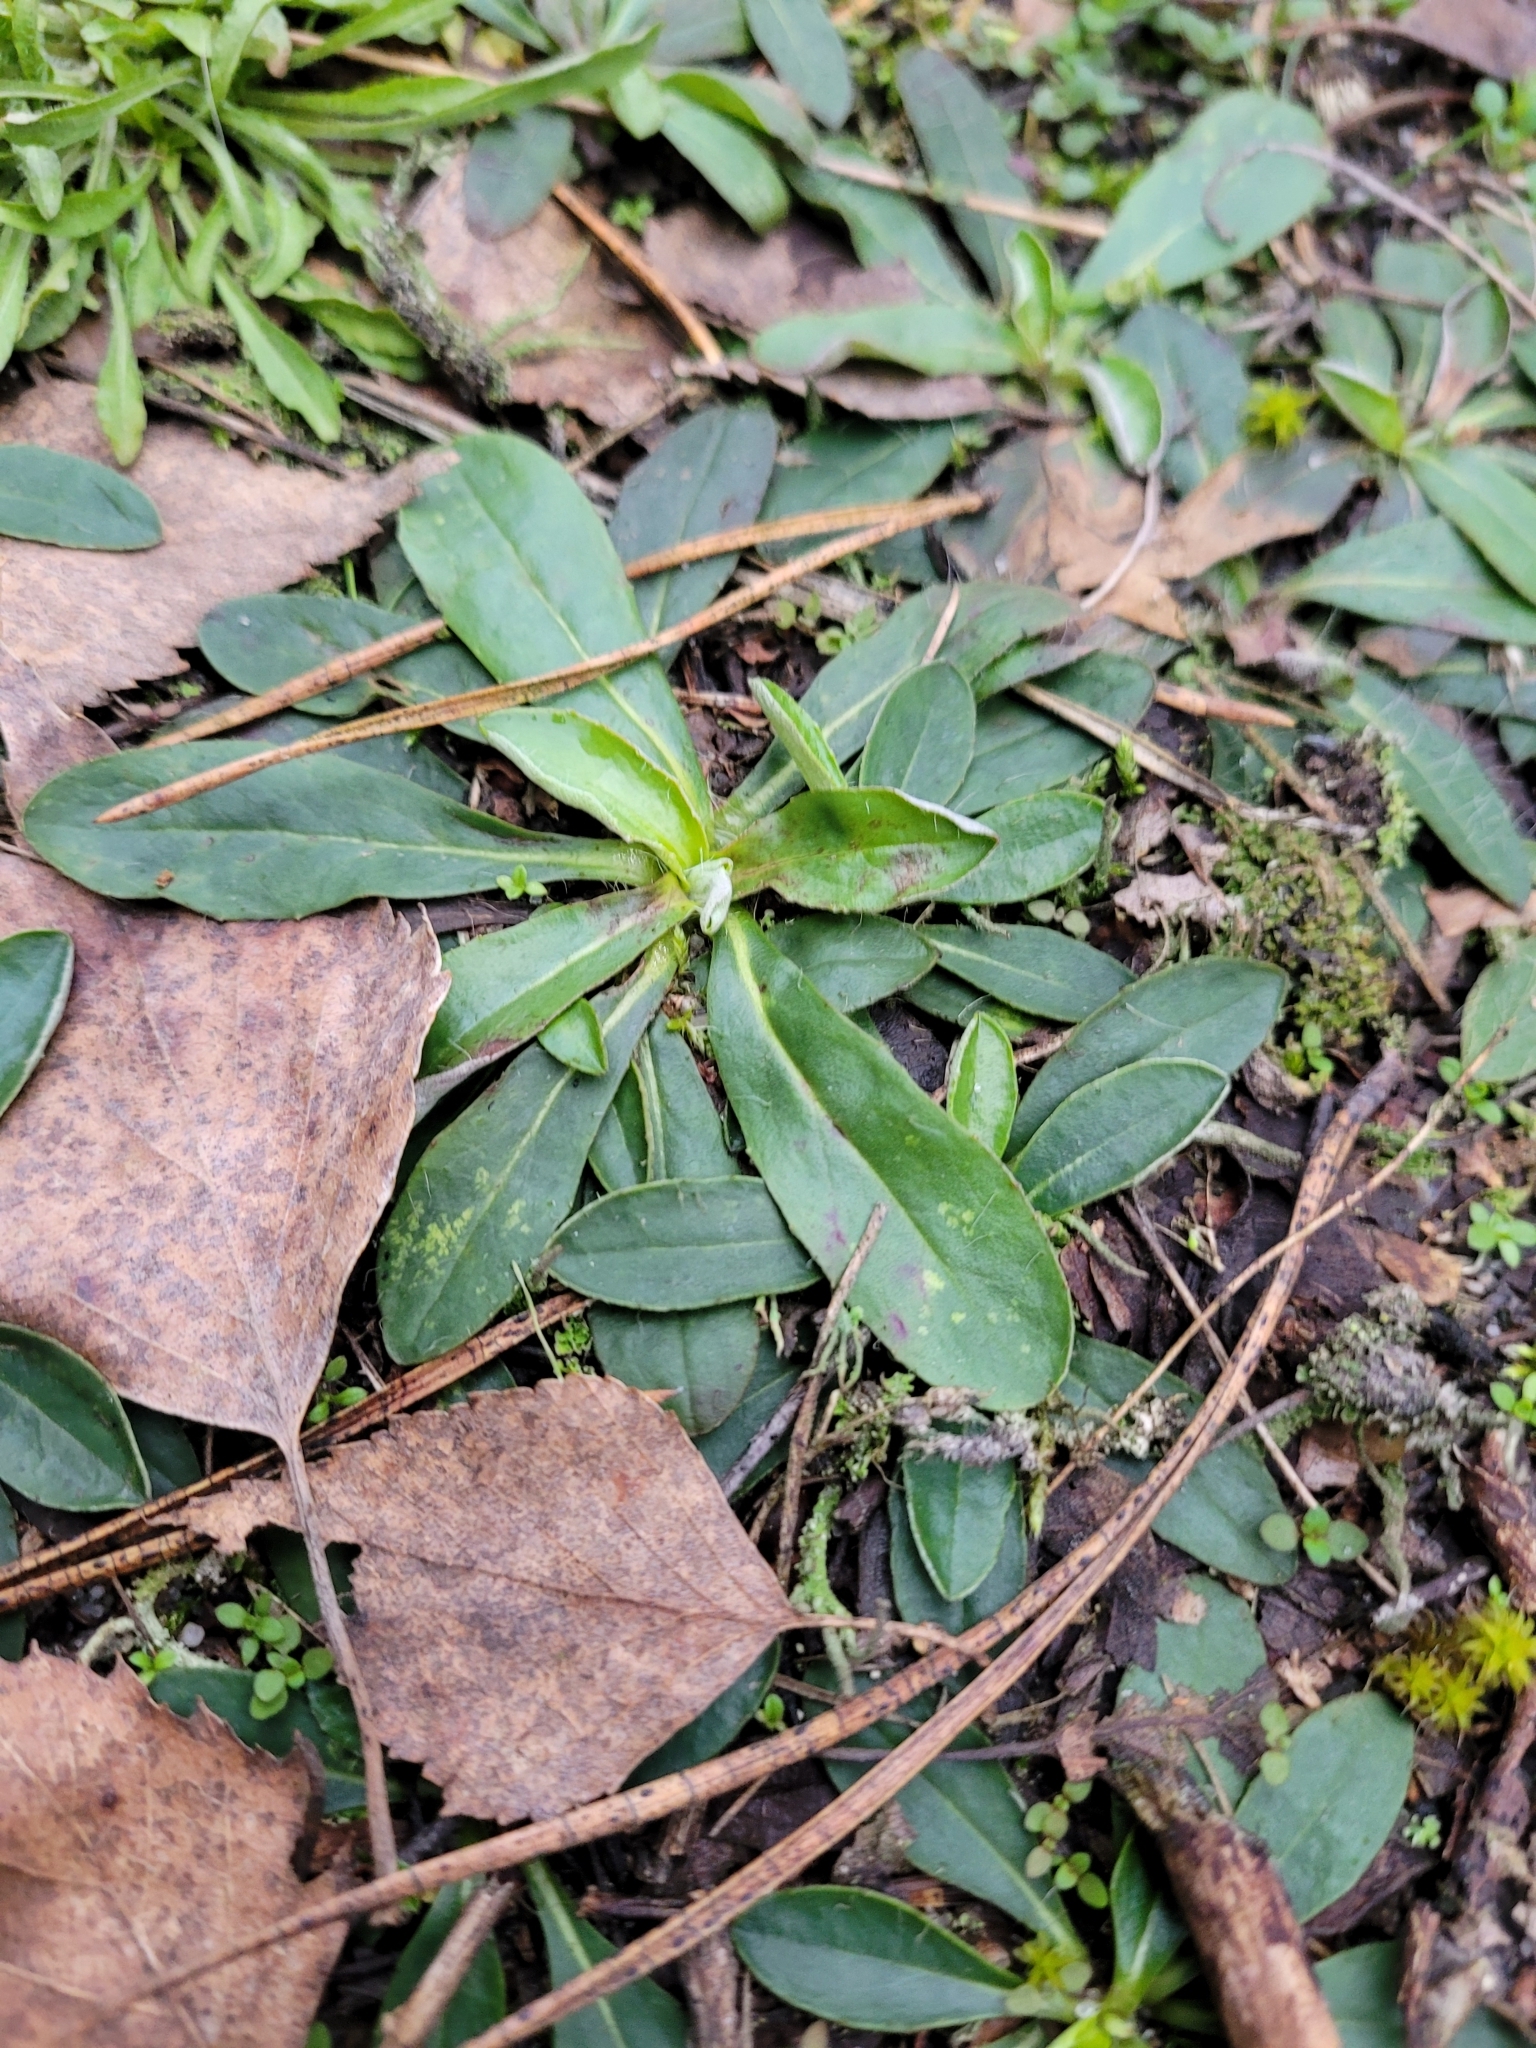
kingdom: Plantae
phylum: Tracheophyta
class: Magnoliopsida
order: Asterales
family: Asteraceae
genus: Pilosella
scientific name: Pilosella officinarum
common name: Mouse-ear hawkweed
